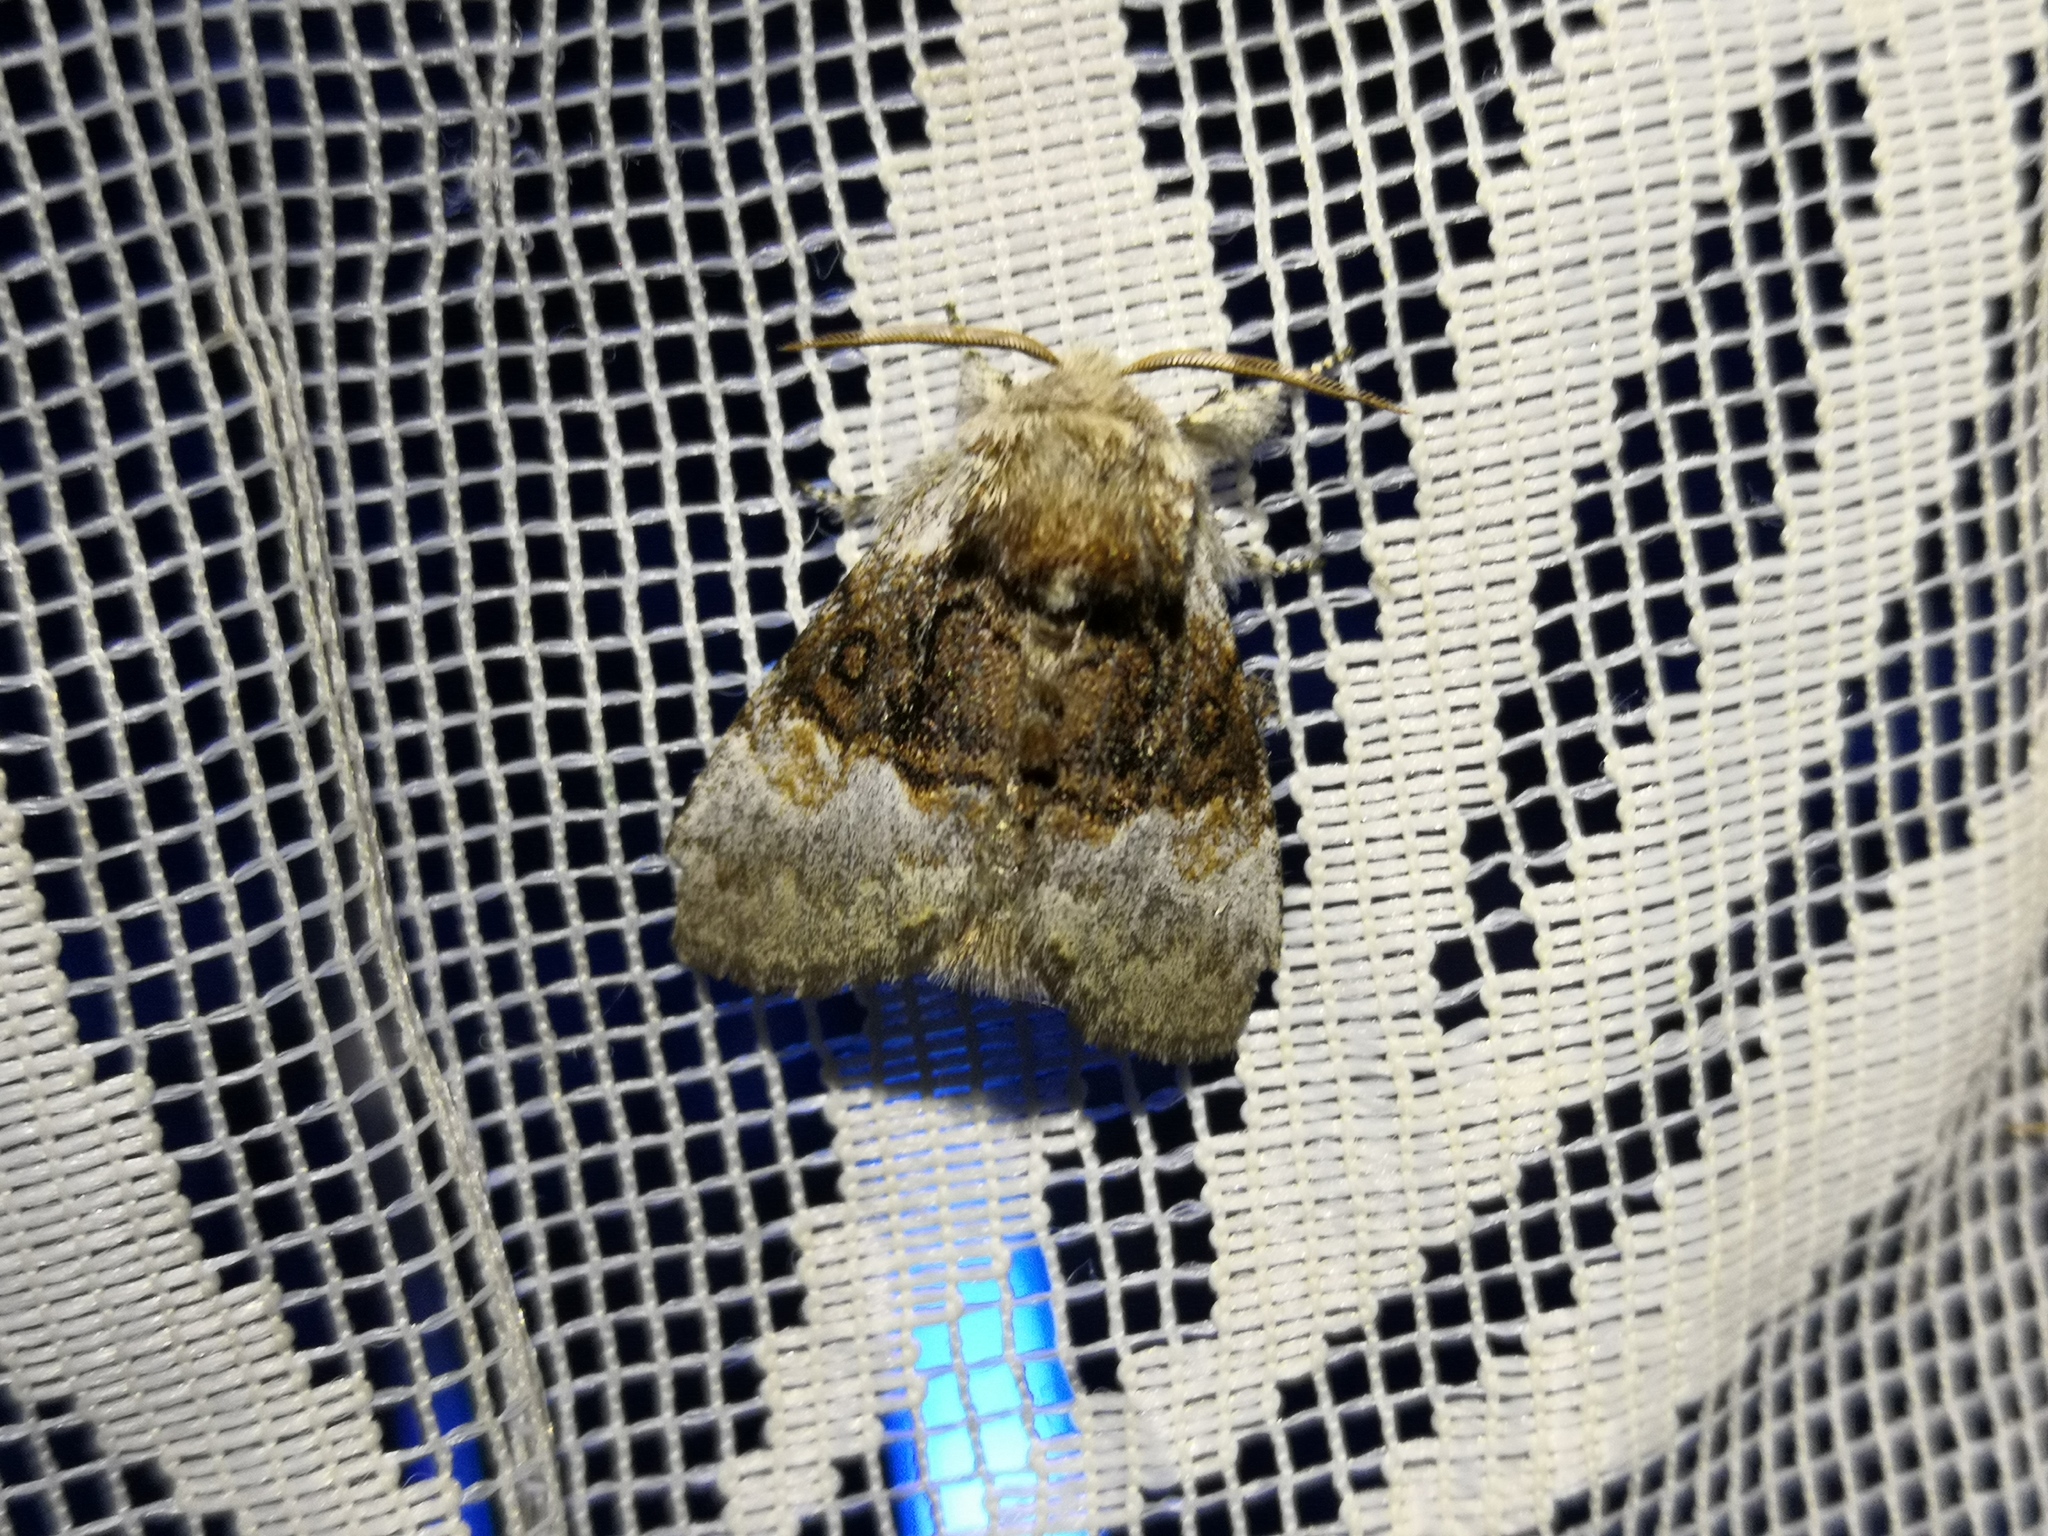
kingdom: Animalia
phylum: Arthropoda
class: Insecta
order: Lepidoptera
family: Noctuidae
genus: Colocasia
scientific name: Colocasia coryli
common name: Nut-tree tussock
